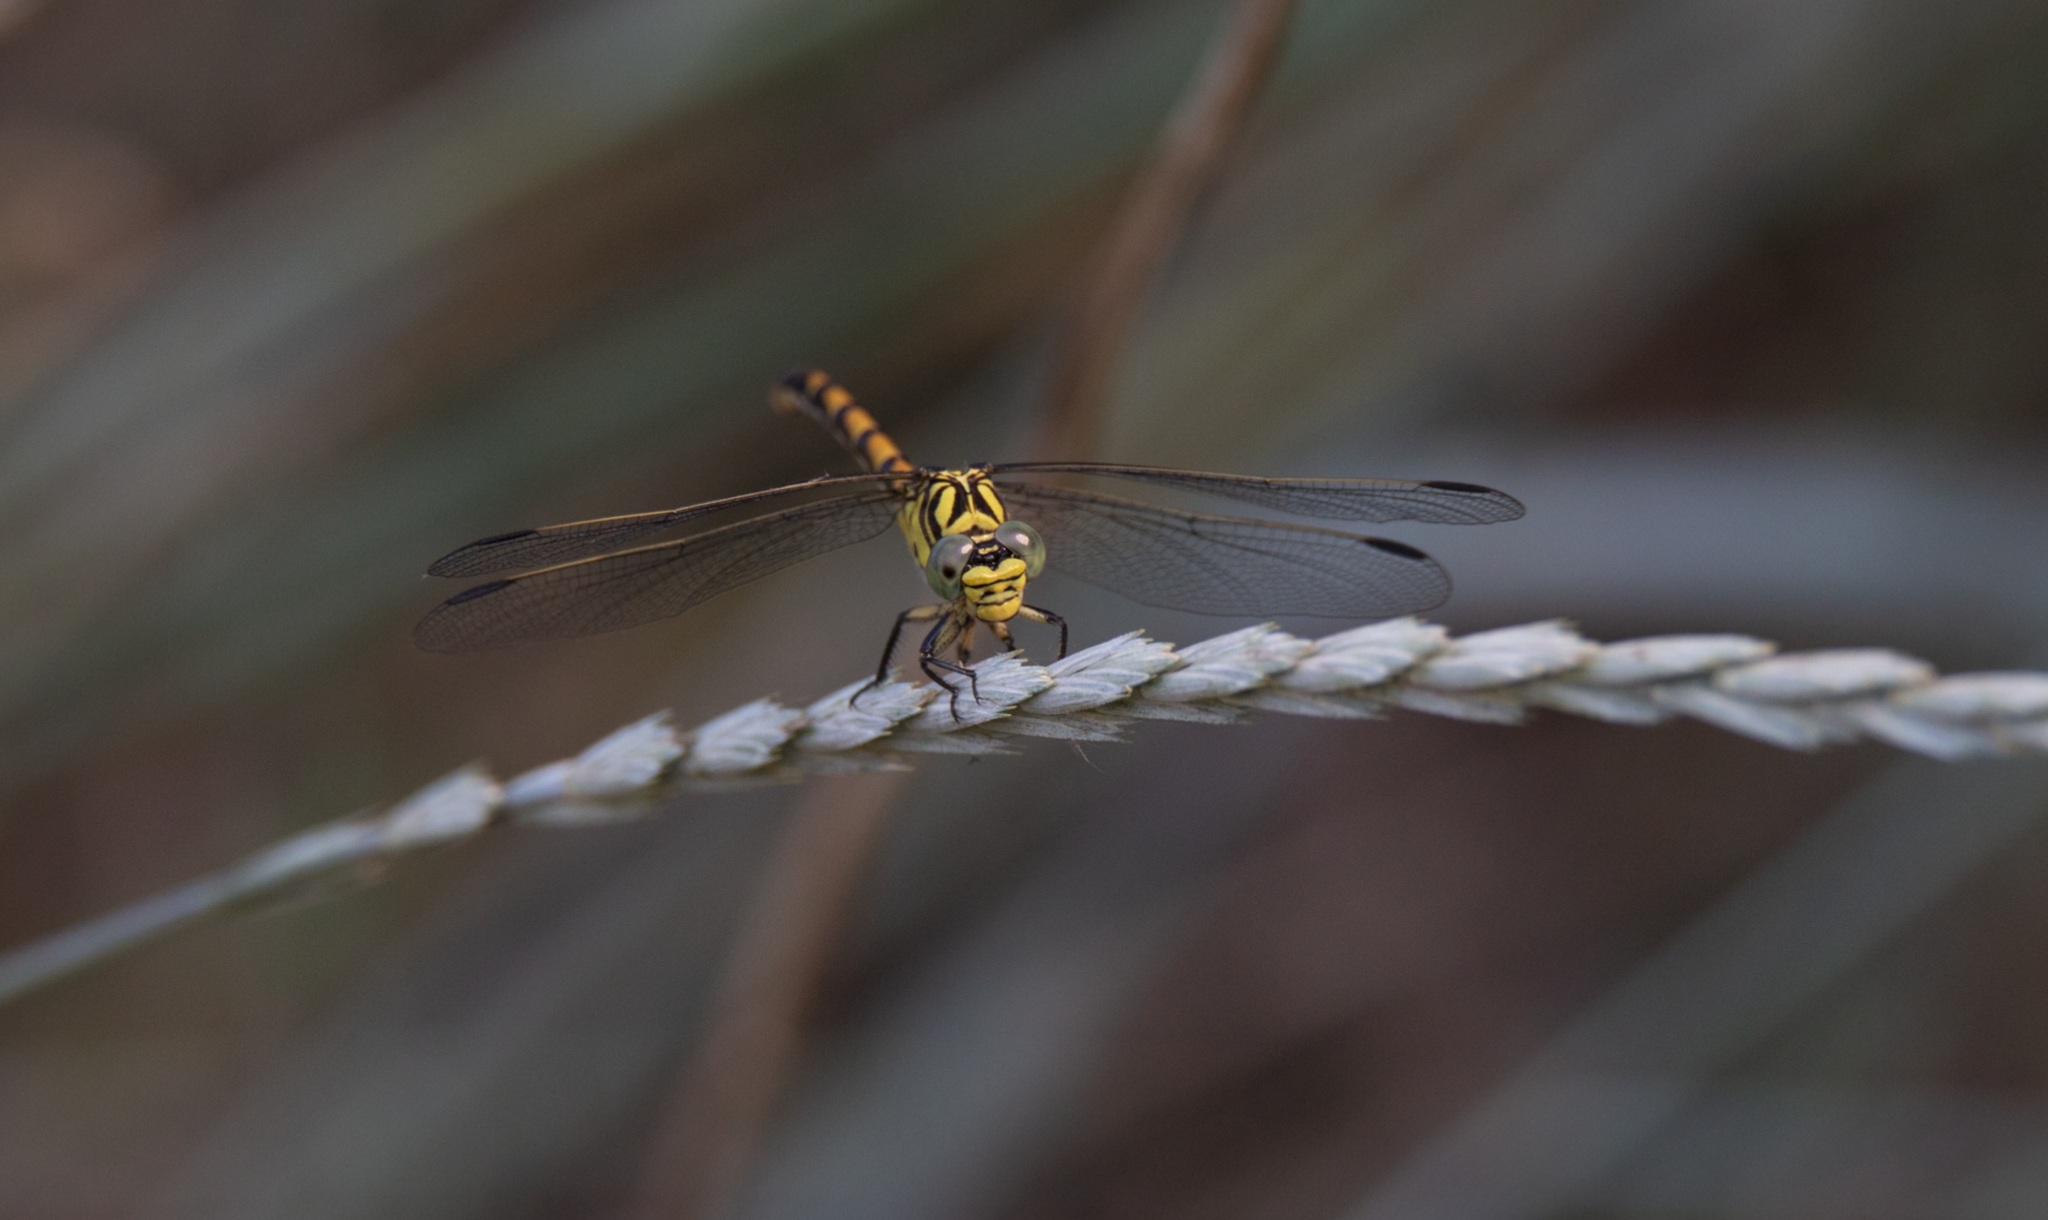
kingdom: Animalia
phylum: Arthropoda
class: Insecta
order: Odonata
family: Gomphidae
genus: Onychogomphus
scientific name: Onychogomphus forcipatus
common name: Small pincertail
